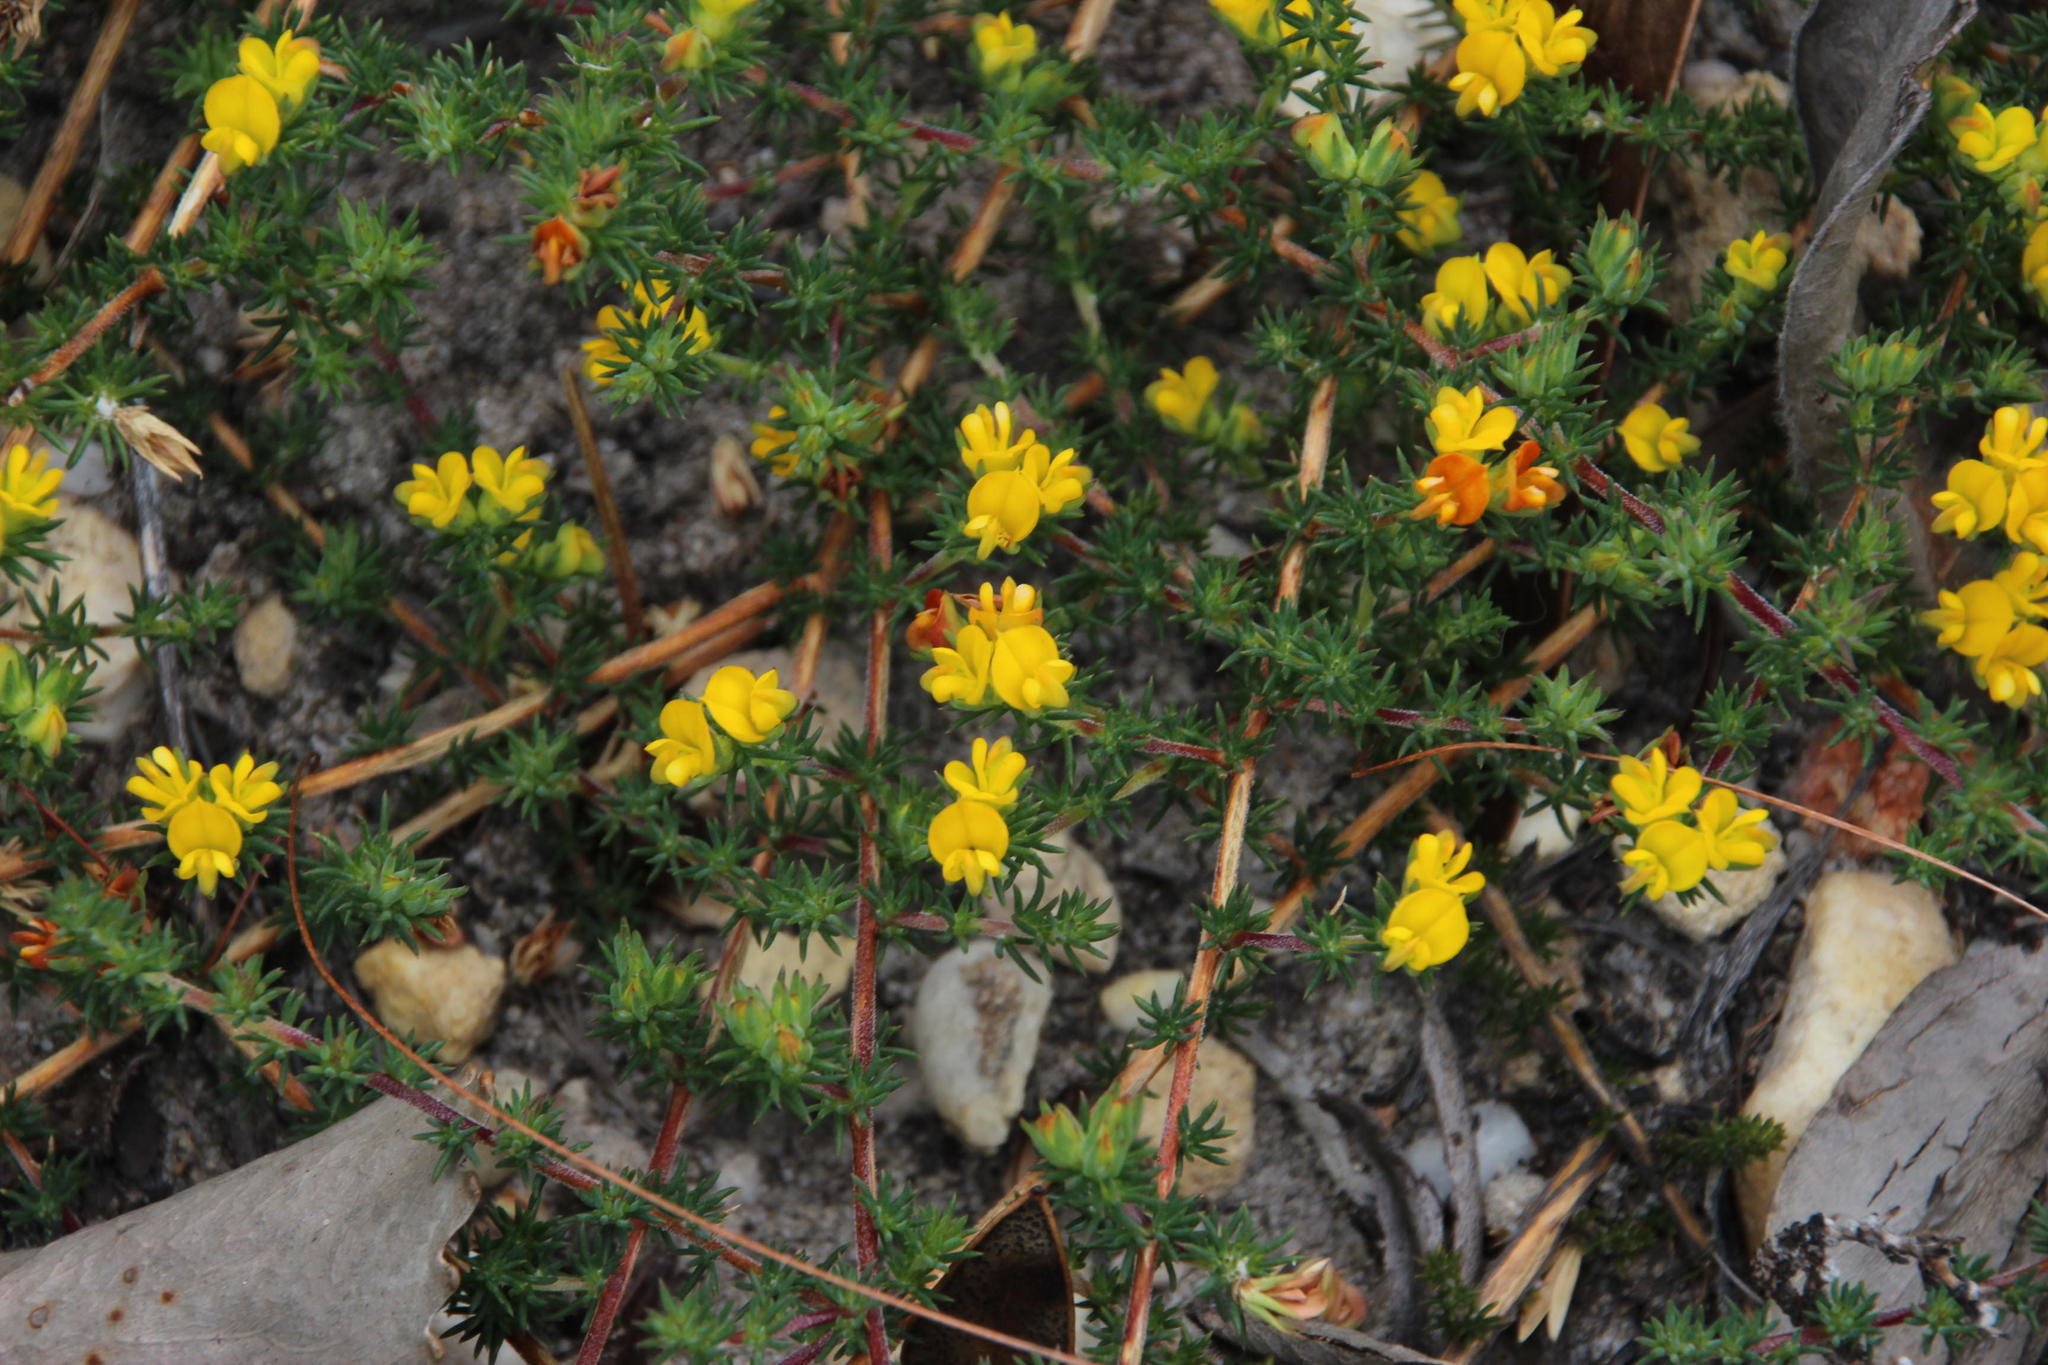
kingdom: Plantae
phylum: Tracheophyta
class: Magnoliopsida
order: Fabales
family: Fabaceae
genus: Aspalathus
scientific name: Aspalathus juniperina
